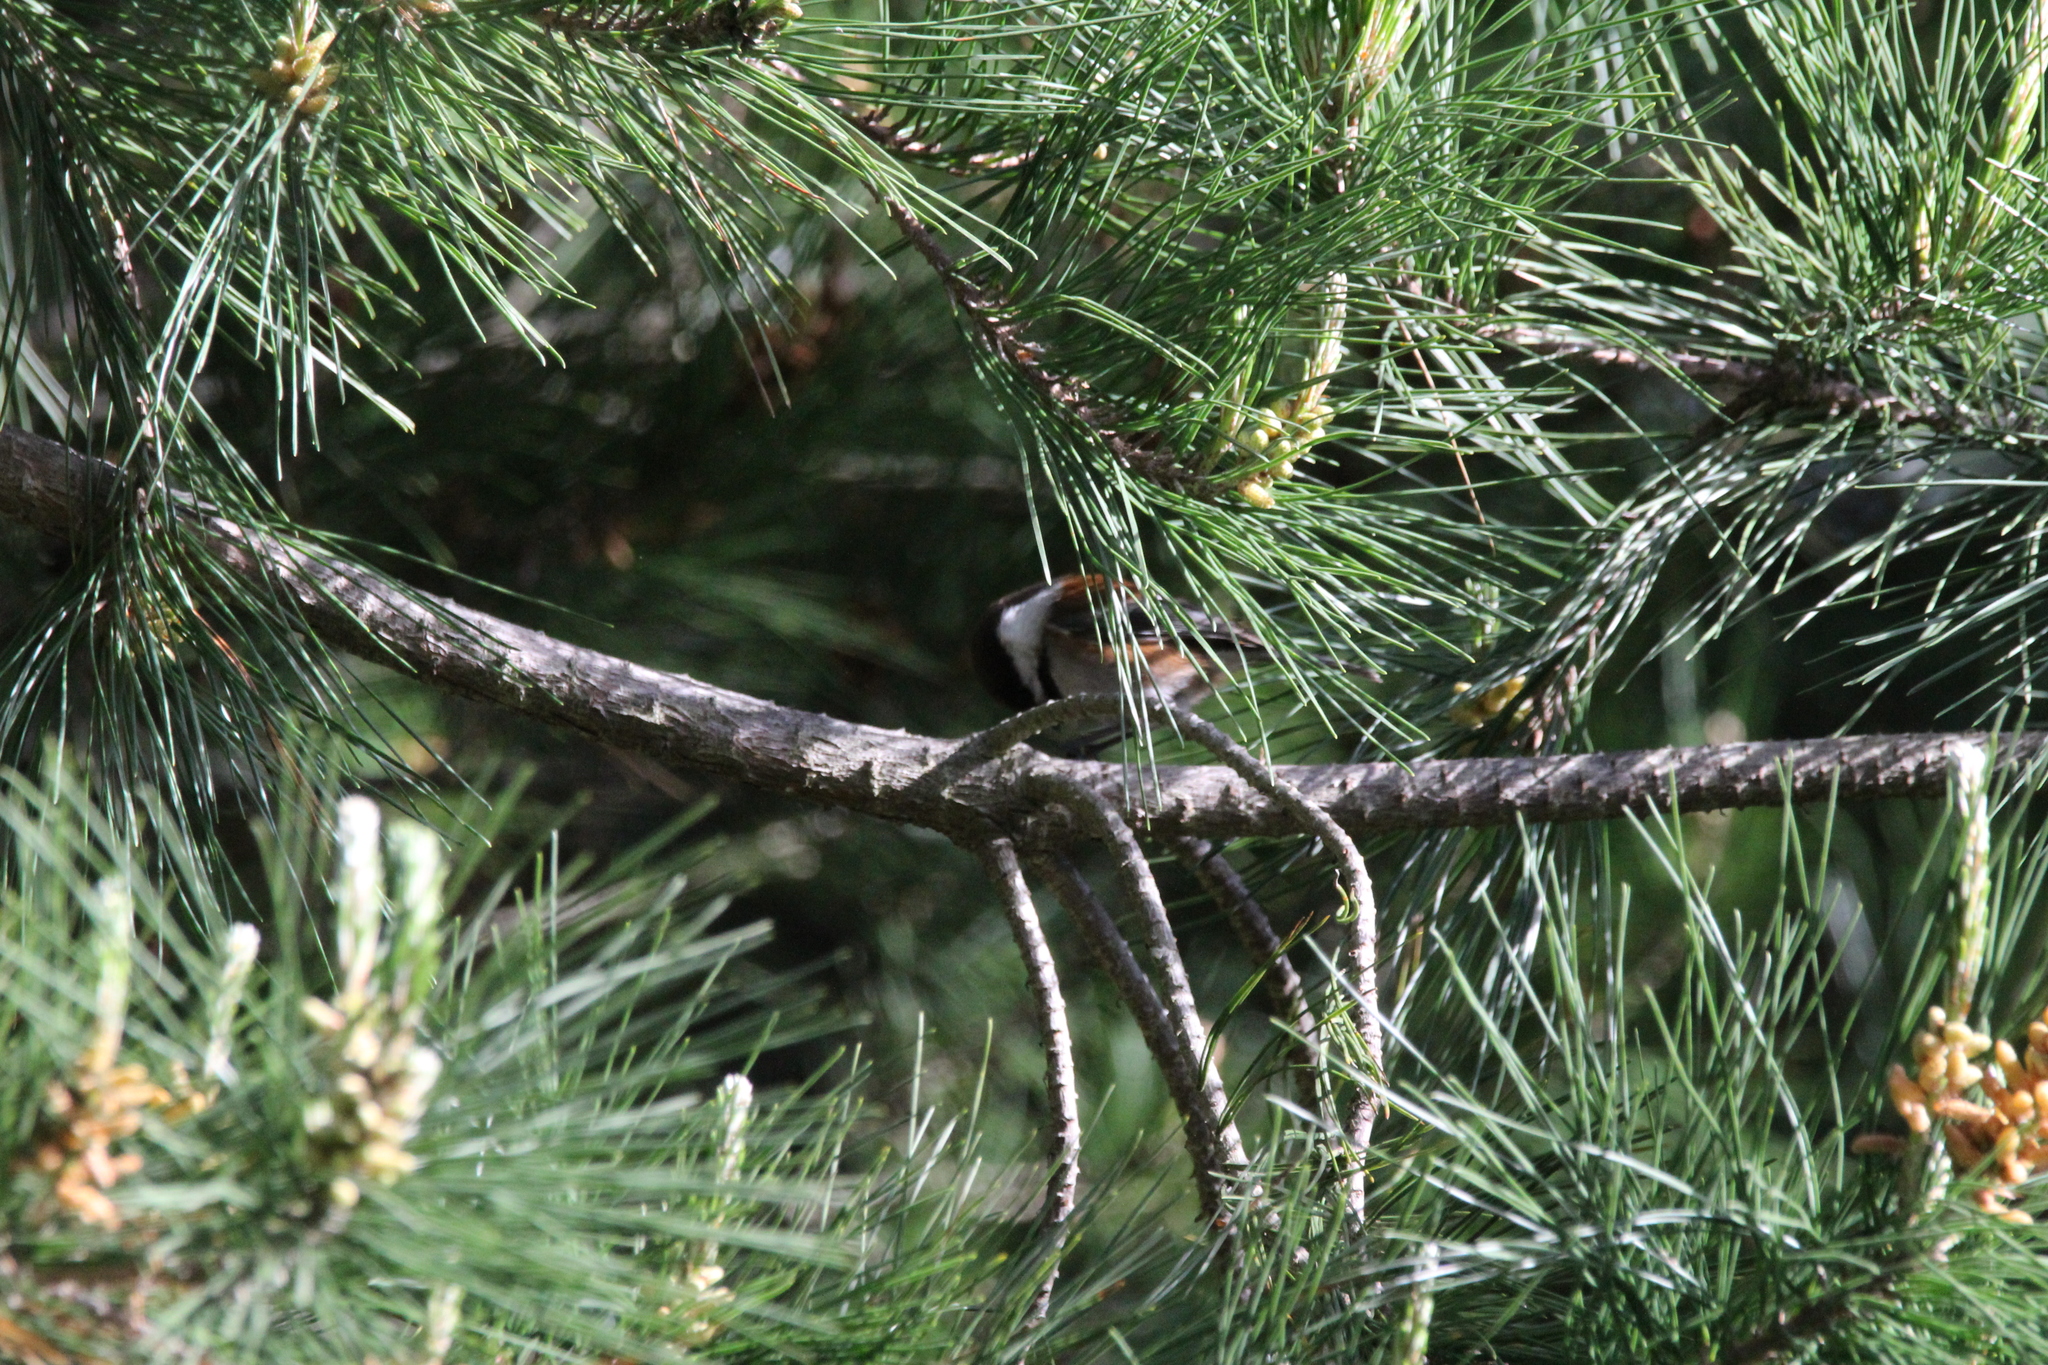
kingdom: Animalia
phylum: Chordata
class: Aves
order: Passeriformes
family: Paridae
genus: Poecile
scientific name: Poecile rufescens
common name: Chestnut-backed chickadee
